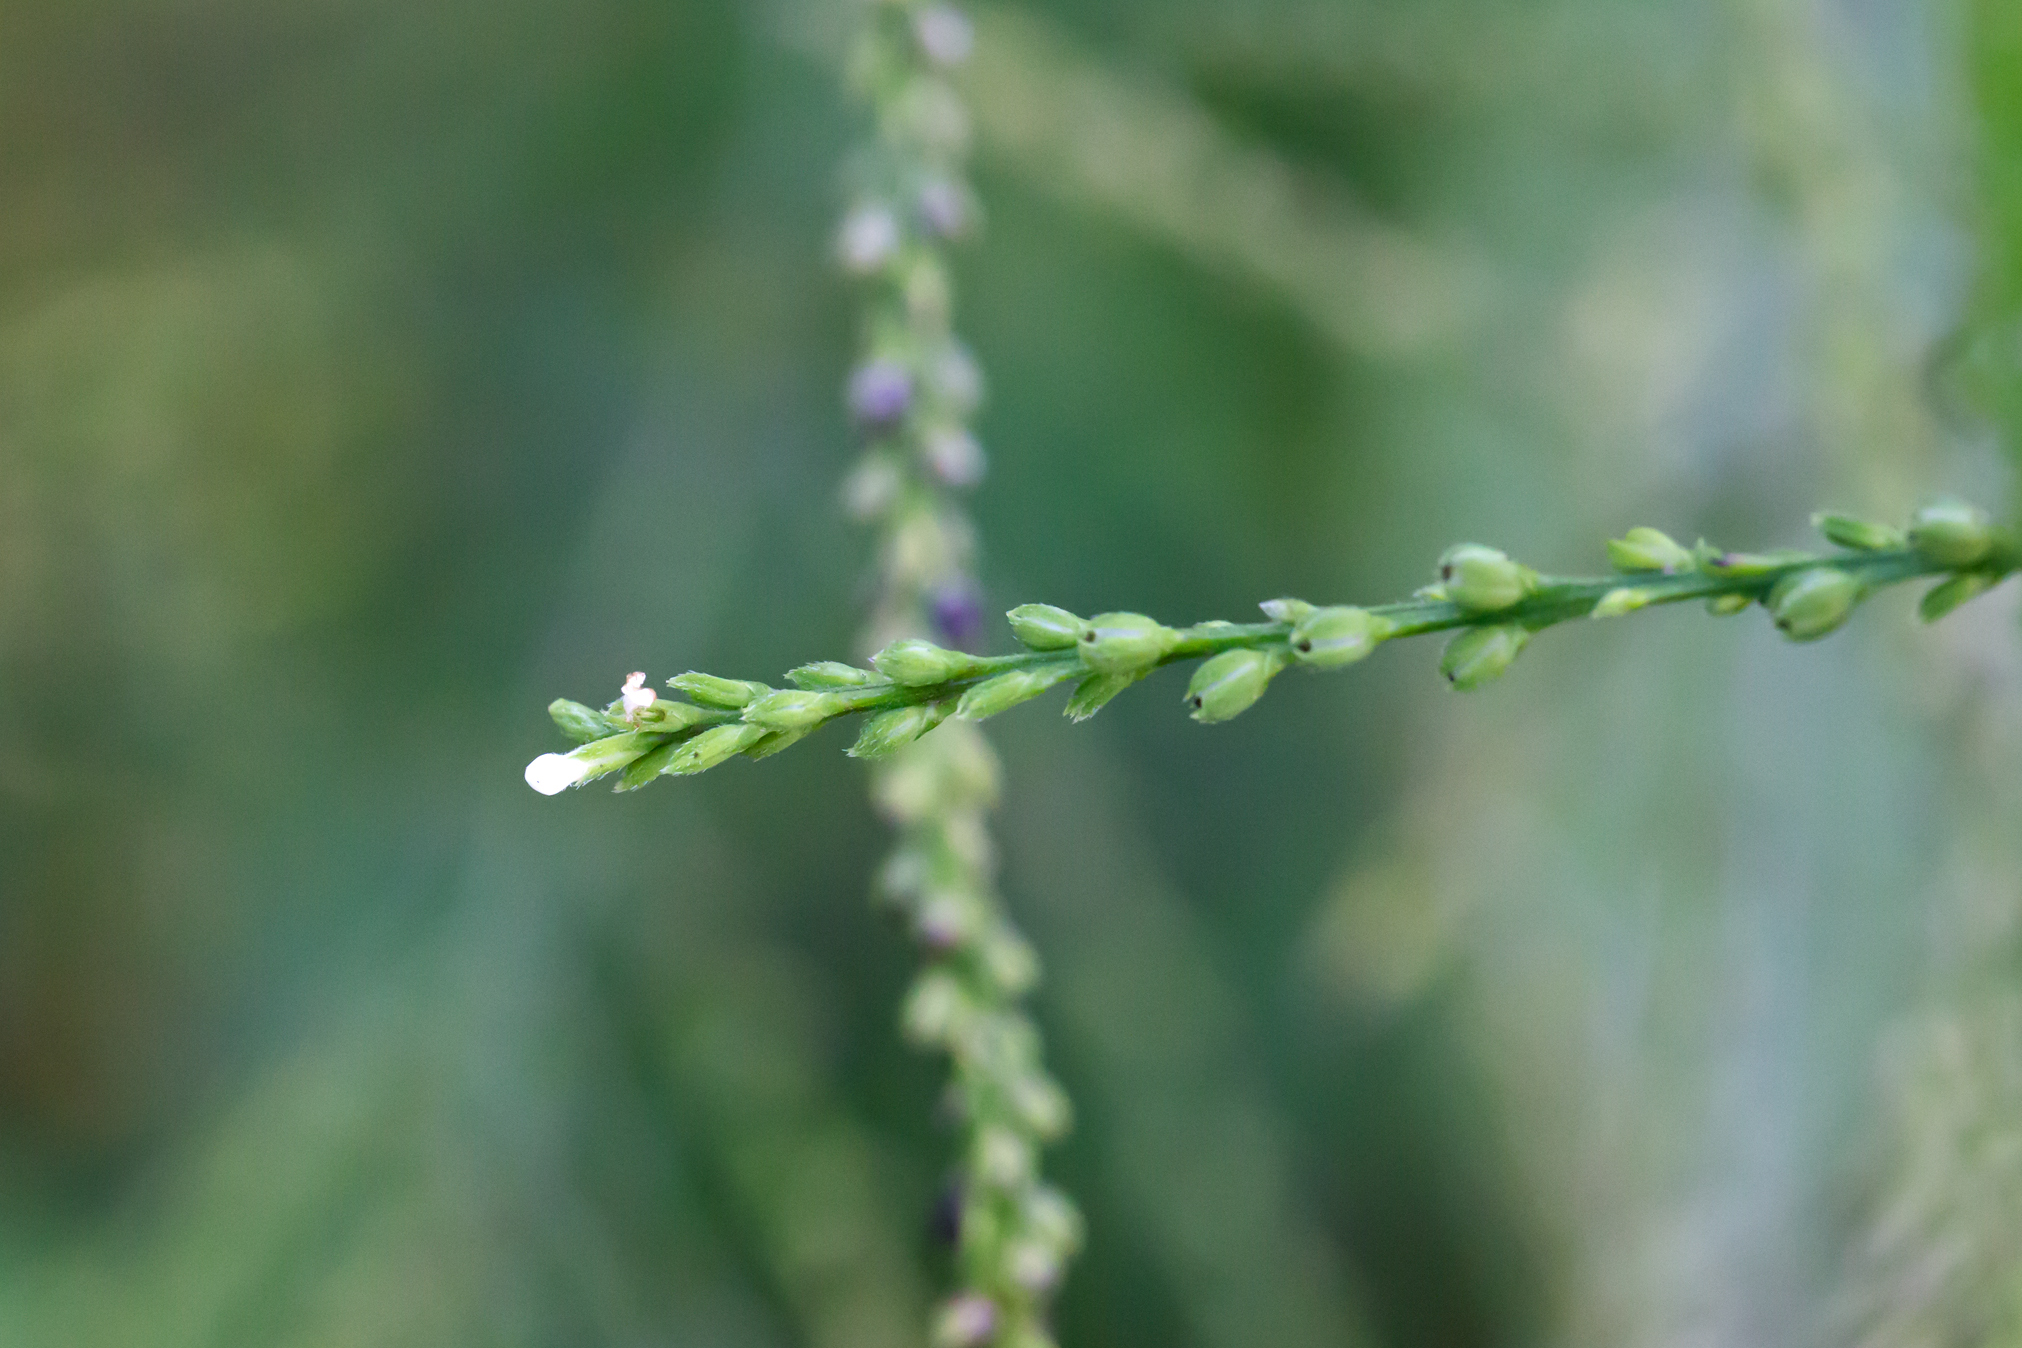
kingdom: Plantae
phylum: Tracheophyta
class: Magnoliopsida
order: Lamiales
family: Verbenaceae
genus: Verbena
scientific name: Verbena urticifolia
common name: Nettle-leaved vervain
